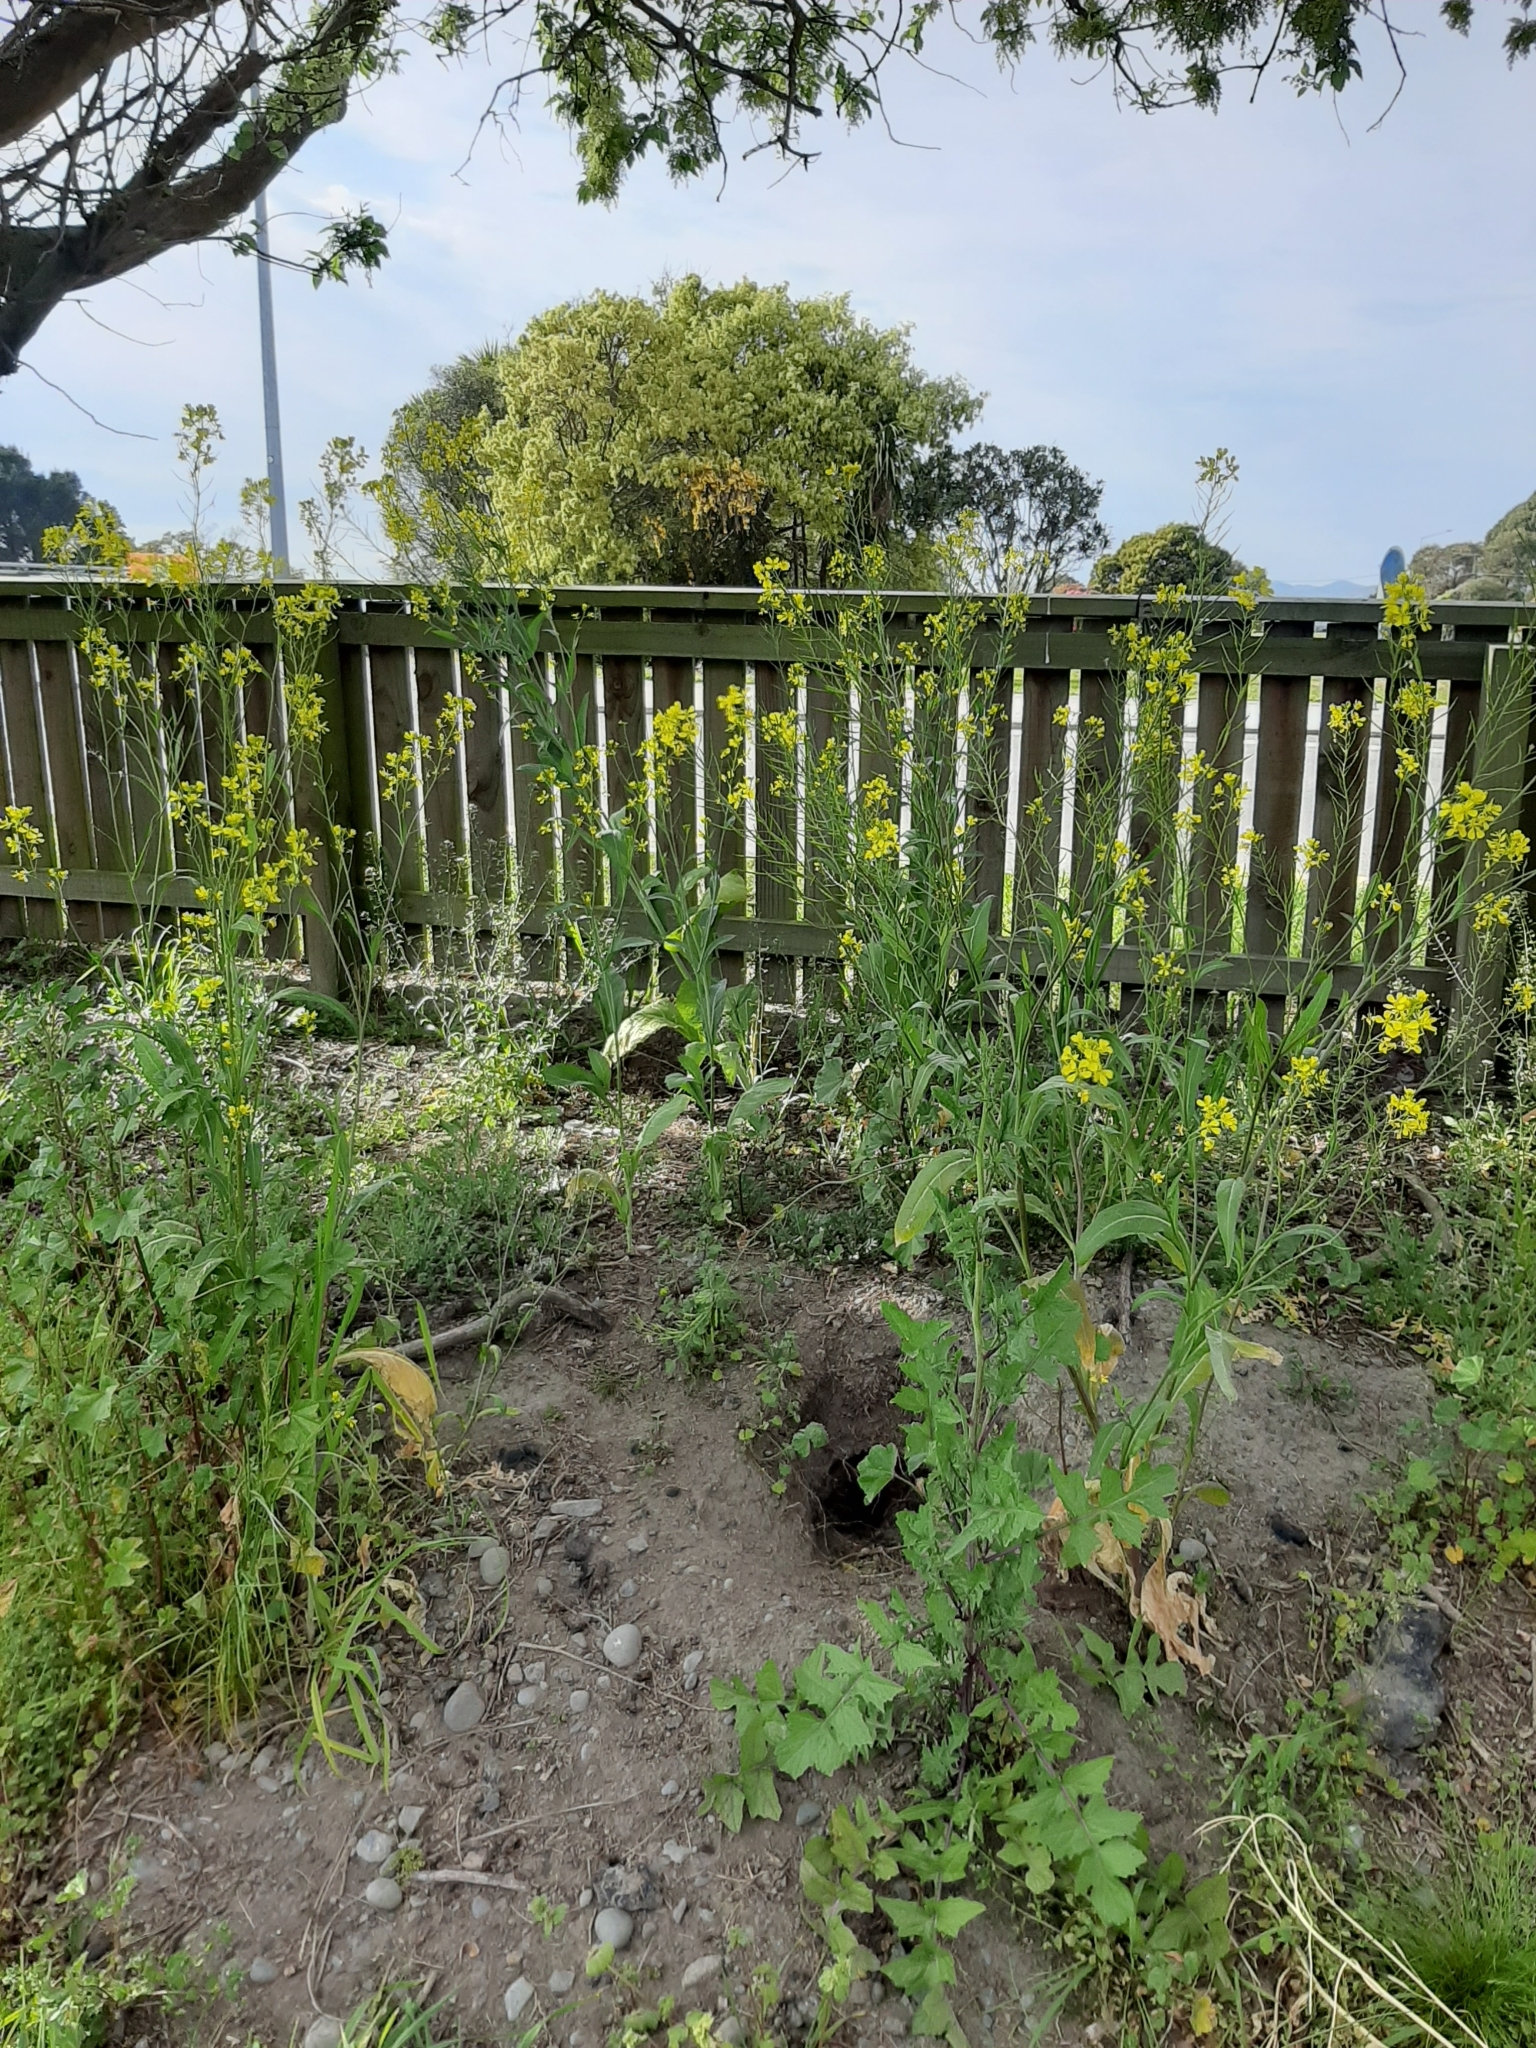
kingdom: Plantae
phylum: Tracheophyta
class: Magnoliopsida
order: Brassicales
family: Brassicaceae
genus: Brassica
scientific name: Brassica rapa
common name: Field mustard
